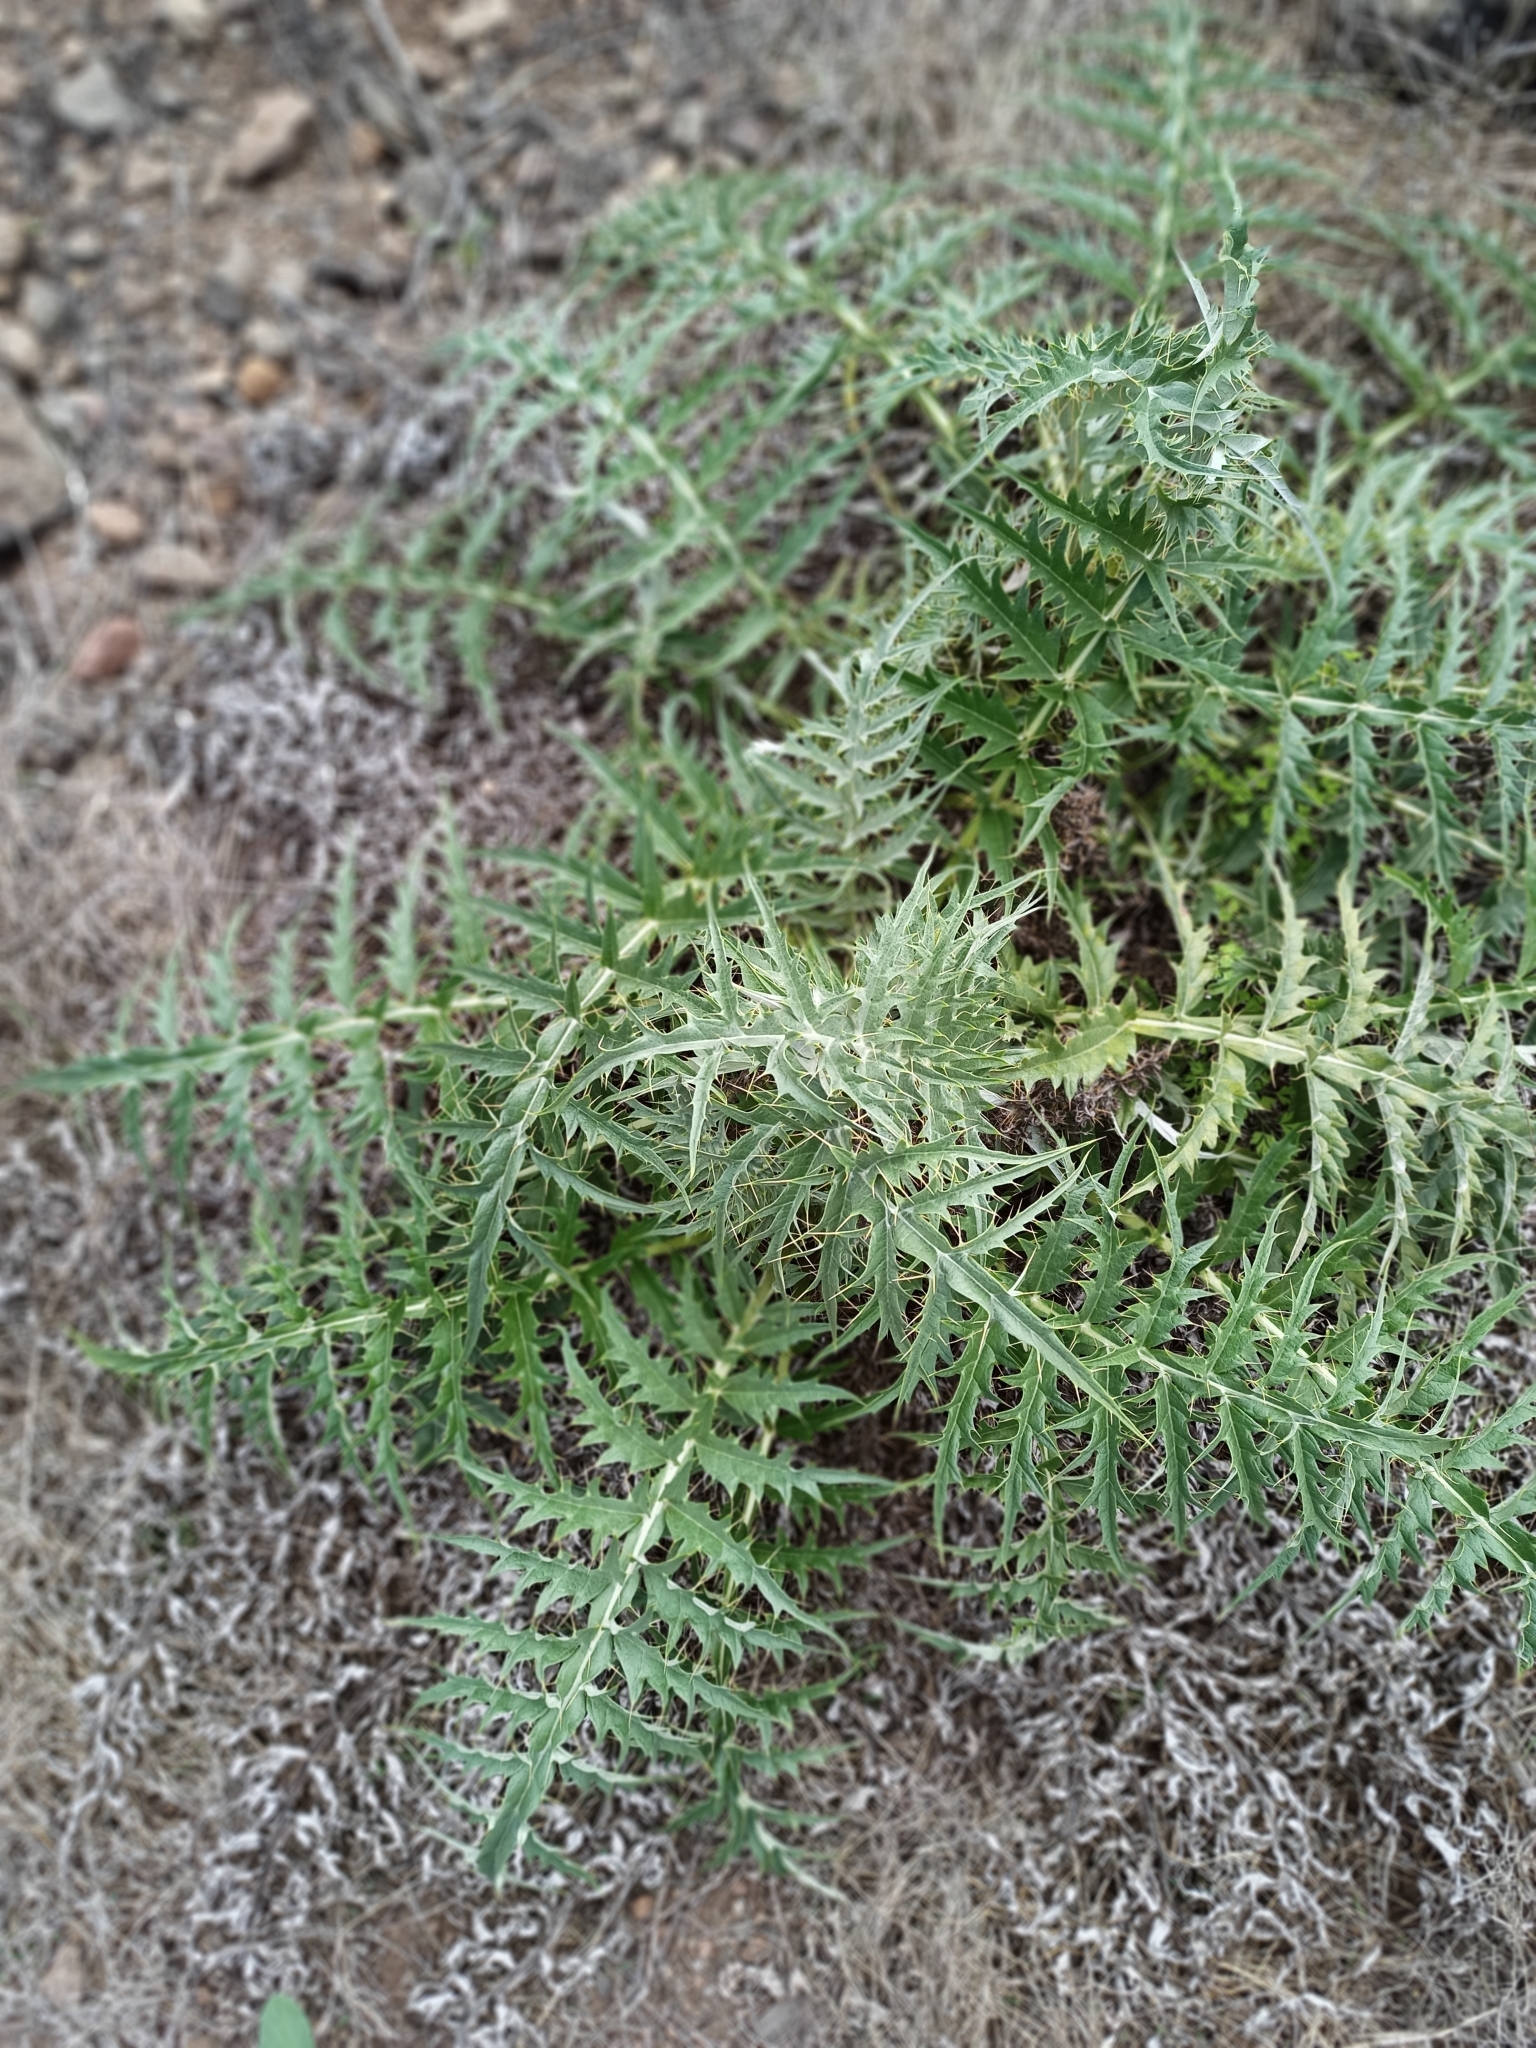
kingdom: Plantae
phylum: Tracheophyta
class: Magnoliopsida
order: Asterales
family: Asteraceae
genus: Cynara
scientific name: Cynara cardunculus
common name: Globe artichoke
